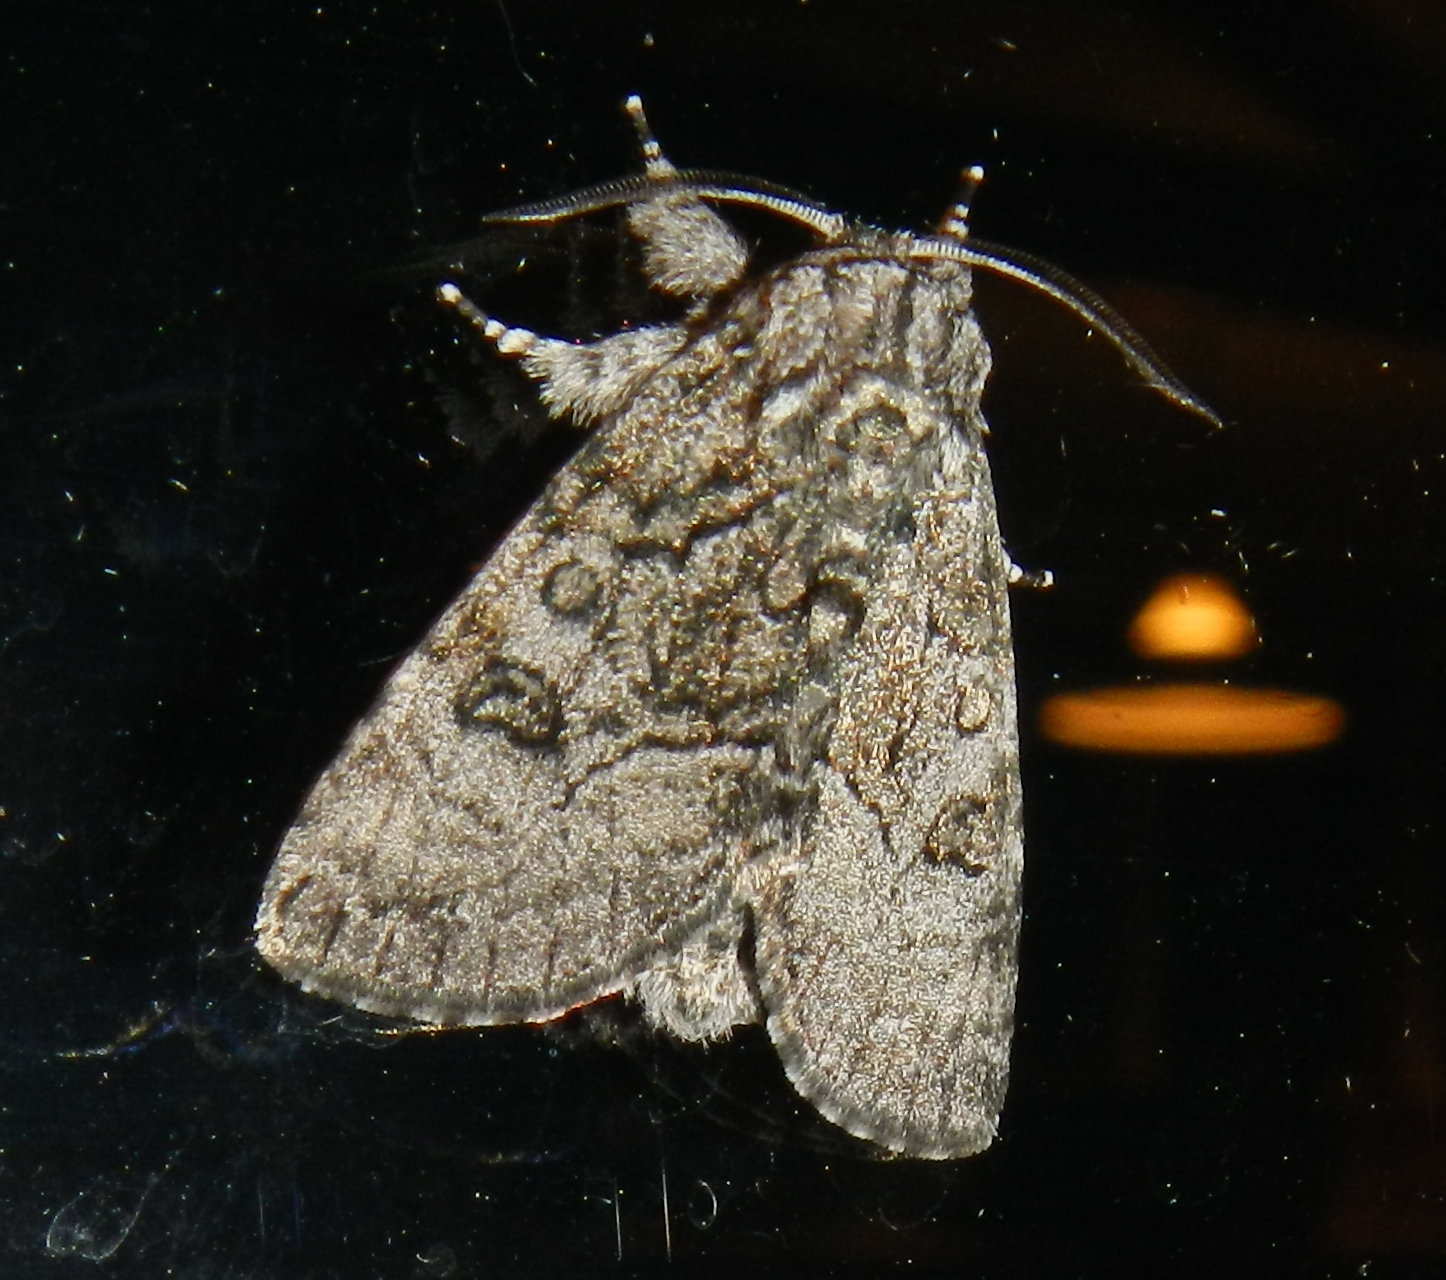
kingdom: Animalia
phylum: Arthropoda
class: Insecta
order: Lepidoptera
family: Noctuidae
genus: Raphia
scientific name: Raphia frater
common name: Brother
